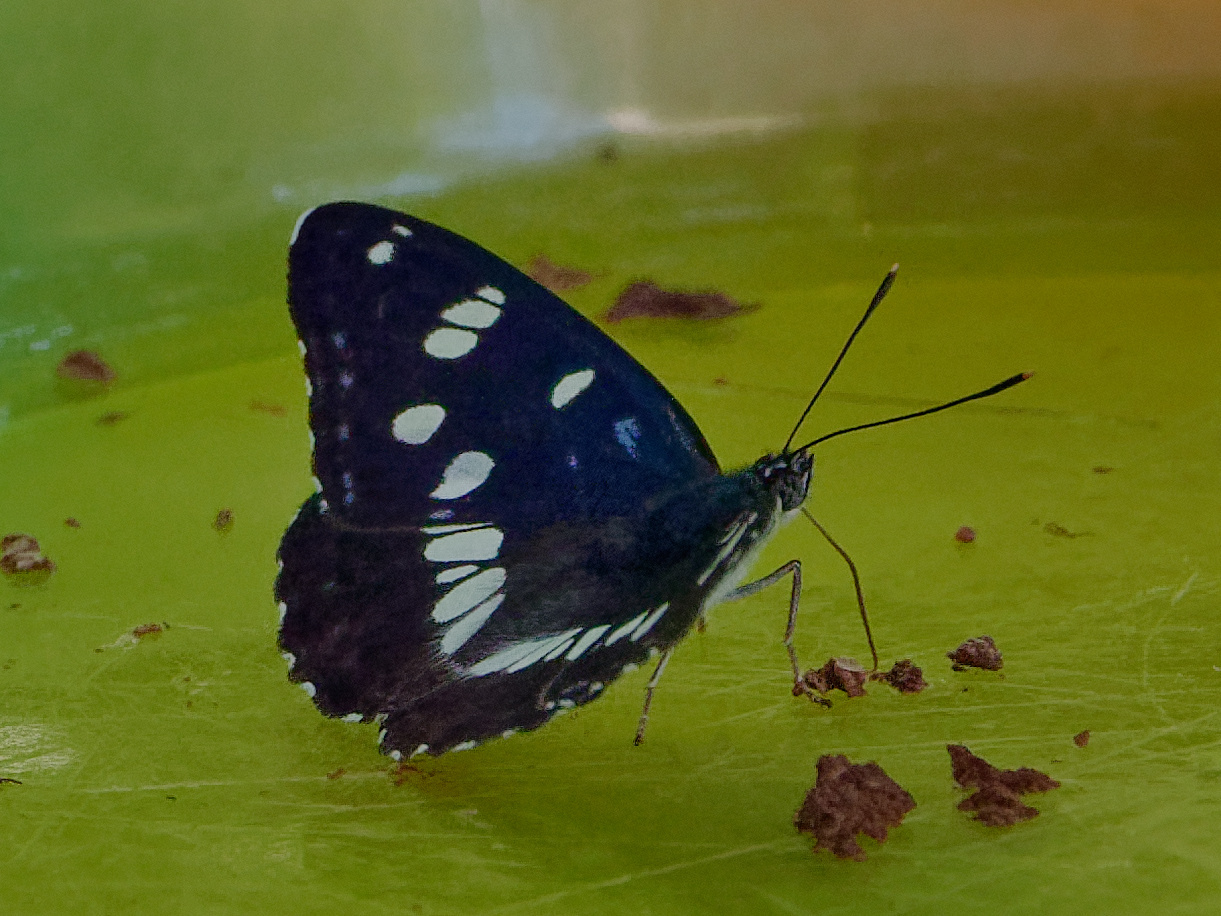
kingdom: Animalia
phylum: Arthropoda
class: Insecta
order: Lepidoptera
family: Nymphalidae
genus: Limenitis
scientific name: Limenitis reducta
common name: Southern white admiral
